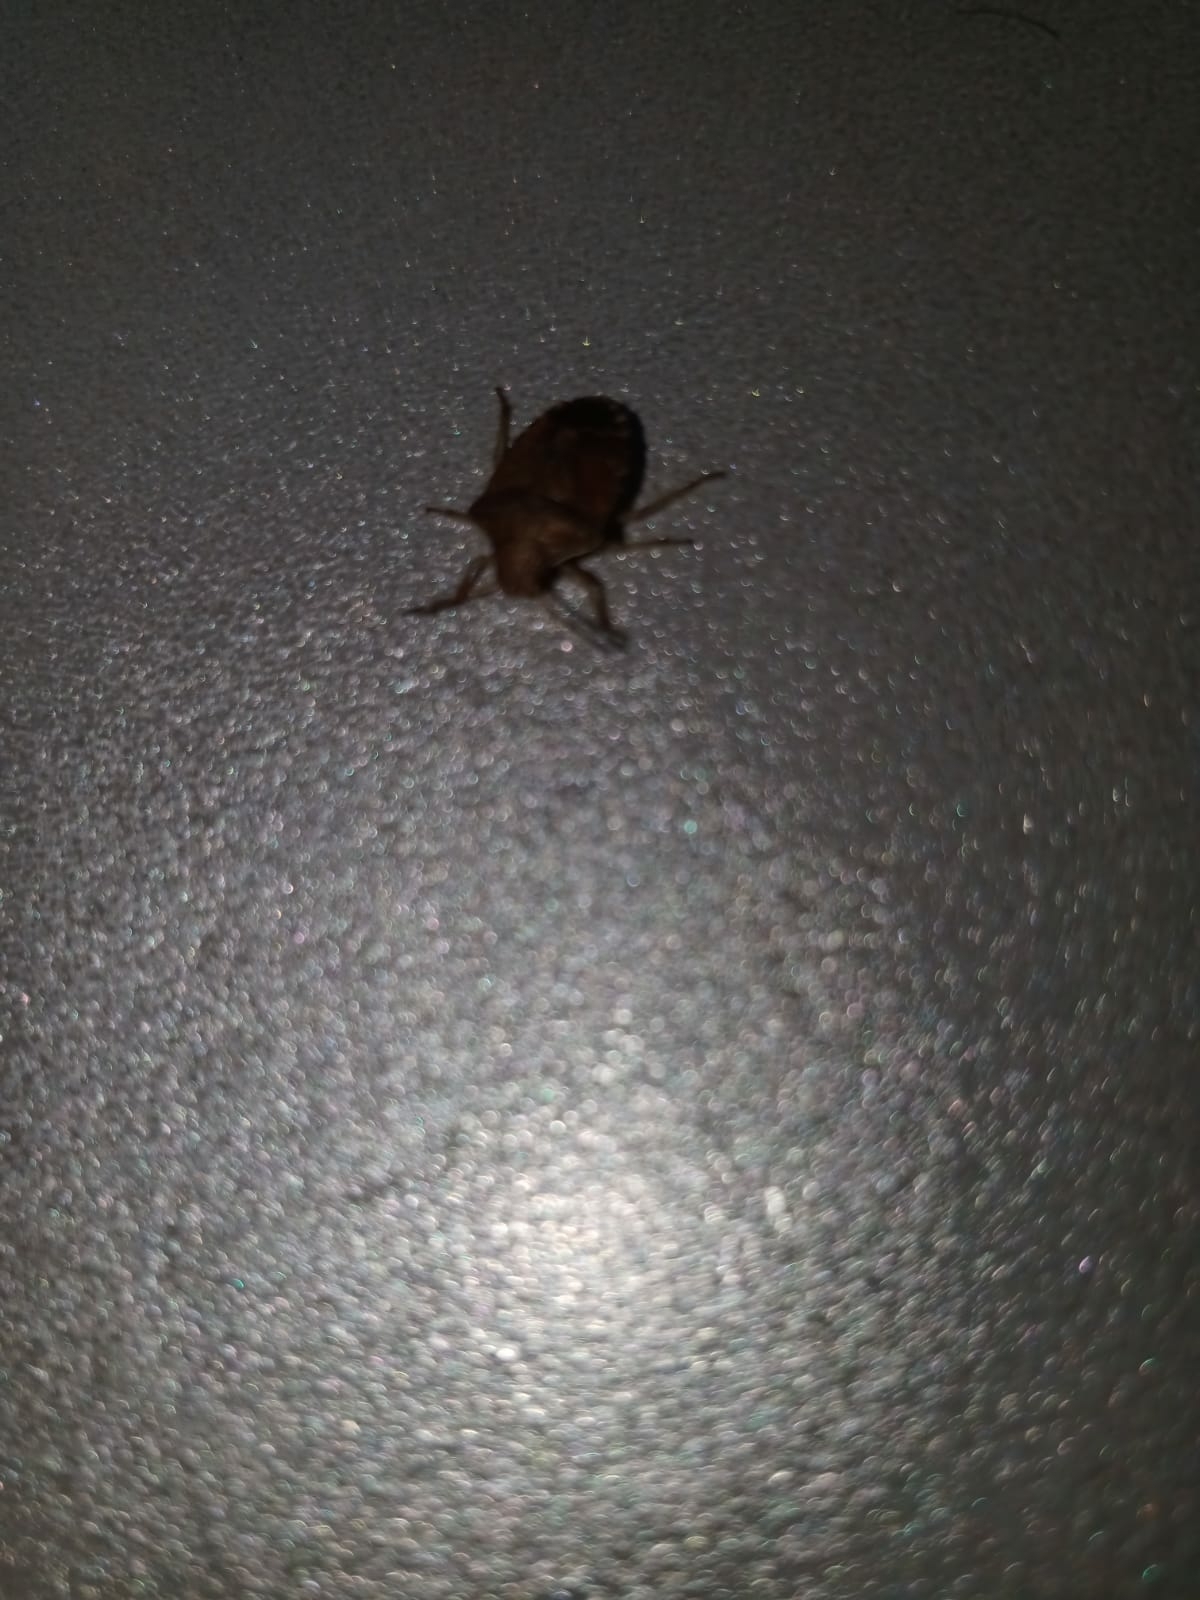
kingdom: Animalia
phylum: Arthropoda
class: Insecta
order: Hemiptera
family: Pentatomidae
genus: Holcostethus
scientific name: Holcostethus strictus
